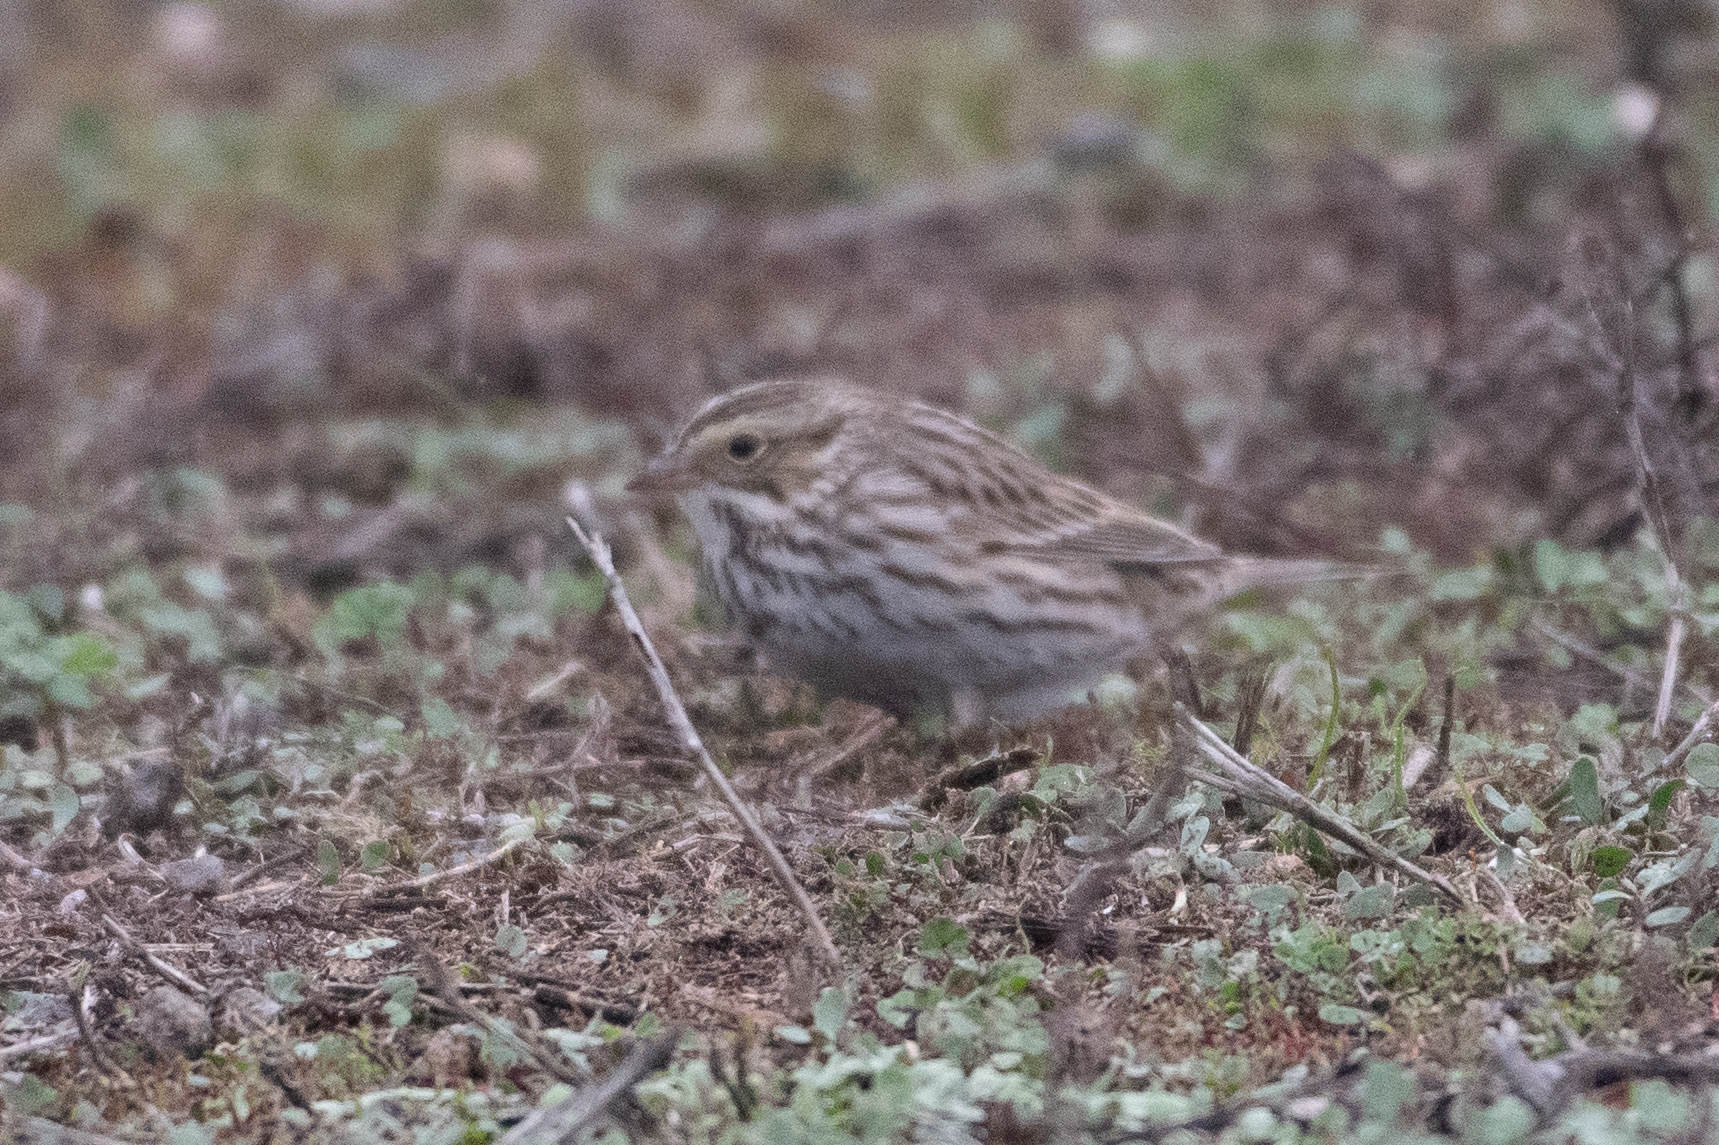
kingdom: Animalia
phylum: Chordata
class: Aves
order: Passeriformes
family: Passerellidae
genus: Passerculus
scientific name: Passerculus sandwichensis
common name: Savannah sparrow
